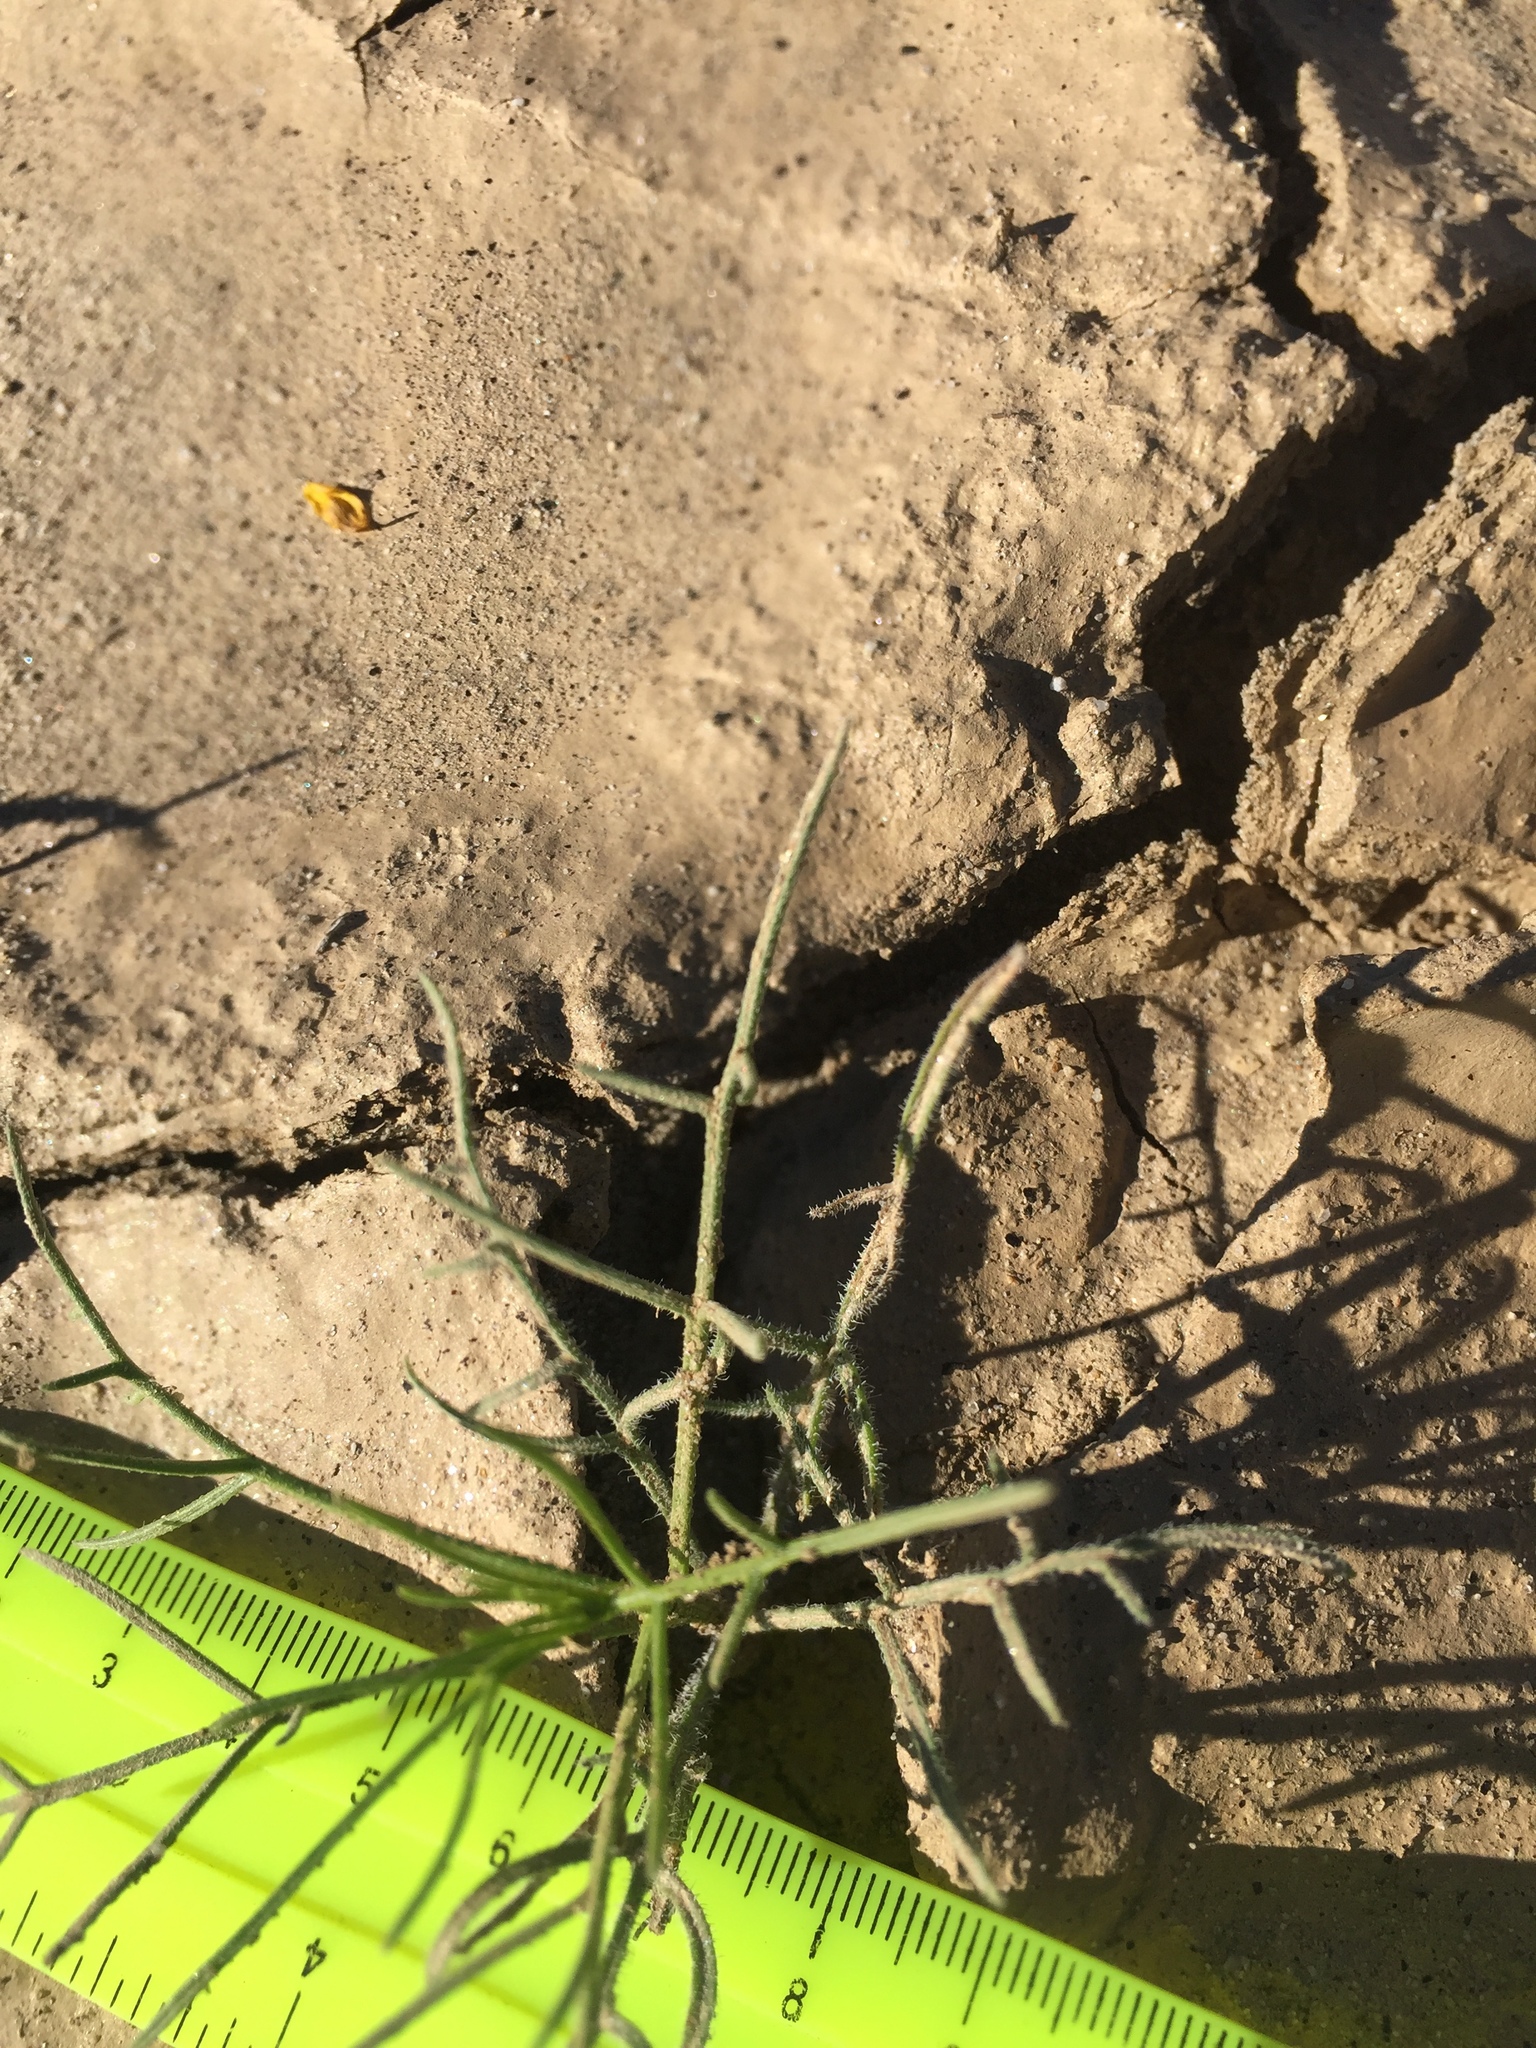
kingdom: Plantae
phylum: Tracheophyta
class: Magnoliopsida
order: Asterales
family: Asteraceae
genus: Ambrosia
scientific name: Ambrosia salsola
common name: Burrobrush
